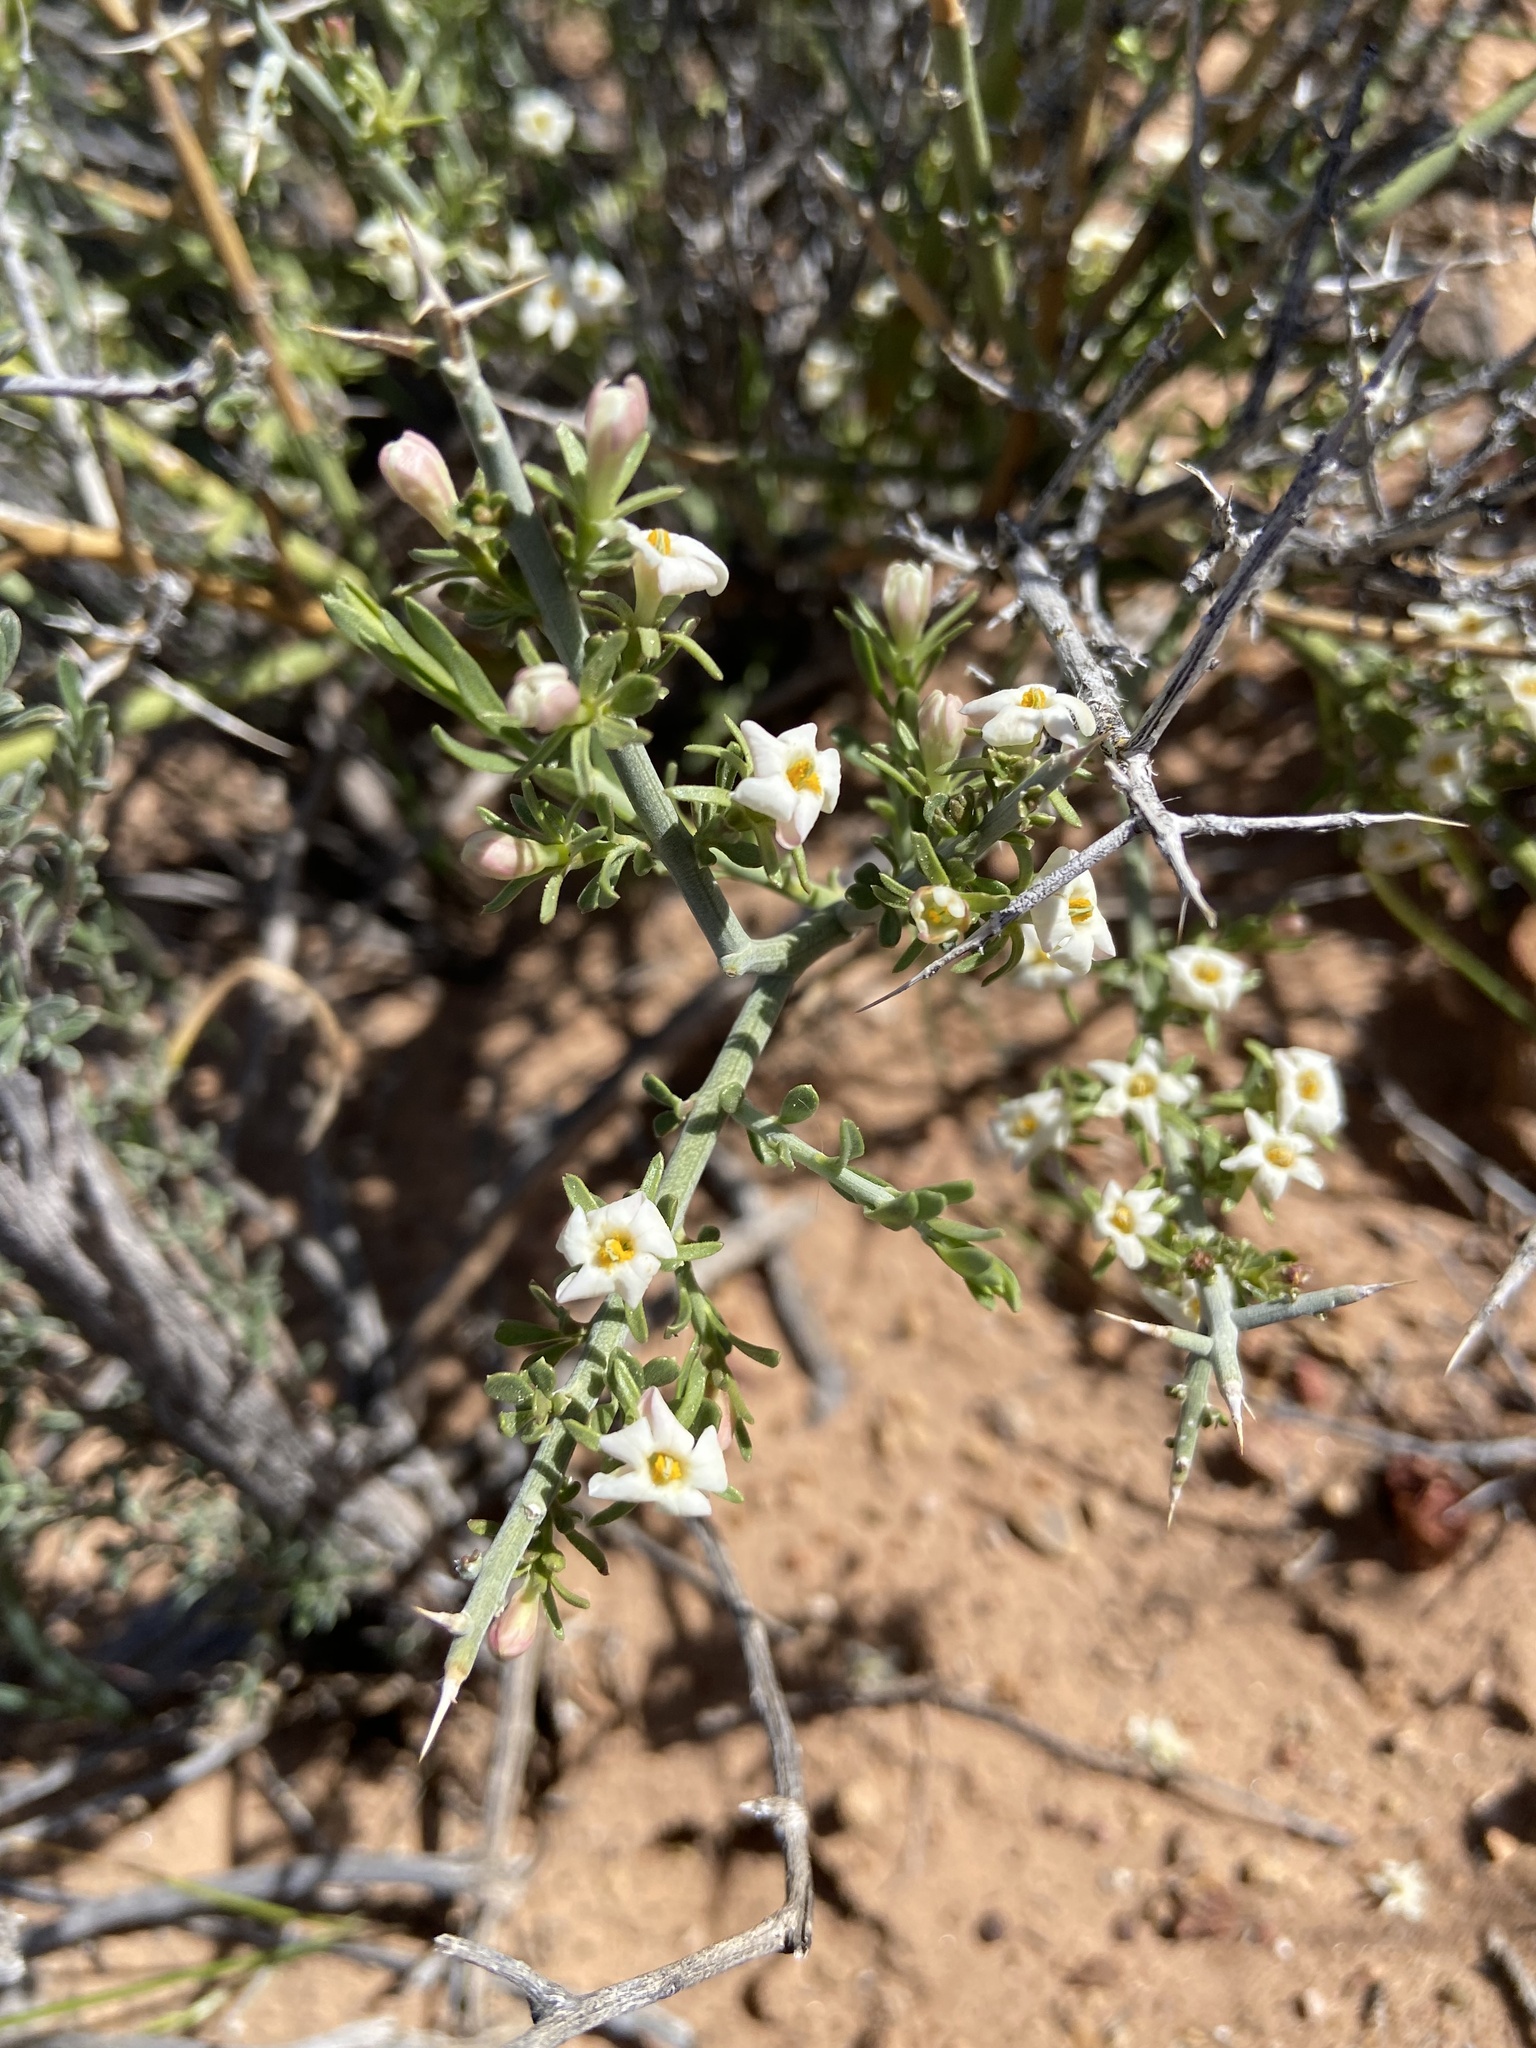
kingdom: Plantae
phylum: Tracheophyta
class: Magnoliopsida
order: Lamiales
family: Oleaceae
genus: Menodora
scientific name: Menodora spinescens
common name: Spiny menodora
